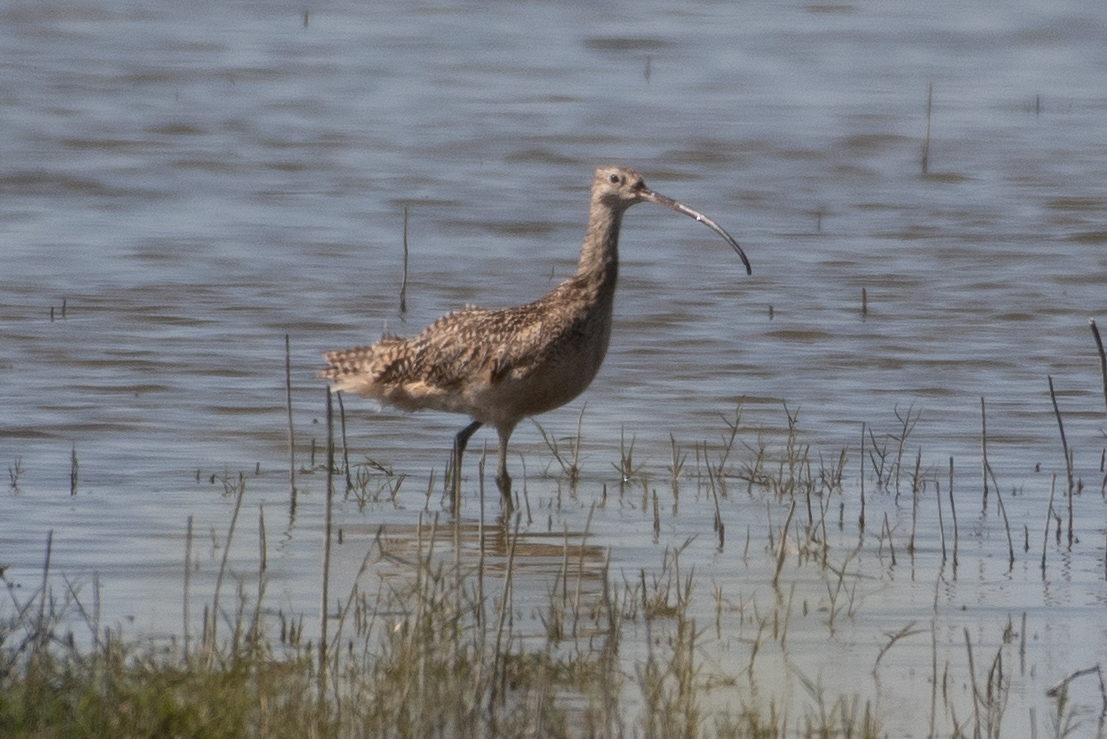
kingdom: Animalia
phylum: Chordata
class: Aves
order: Charadriiformes
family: Scolopacidae
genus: Numenius
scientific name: Numenius americanus
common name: Long-billed curlew
